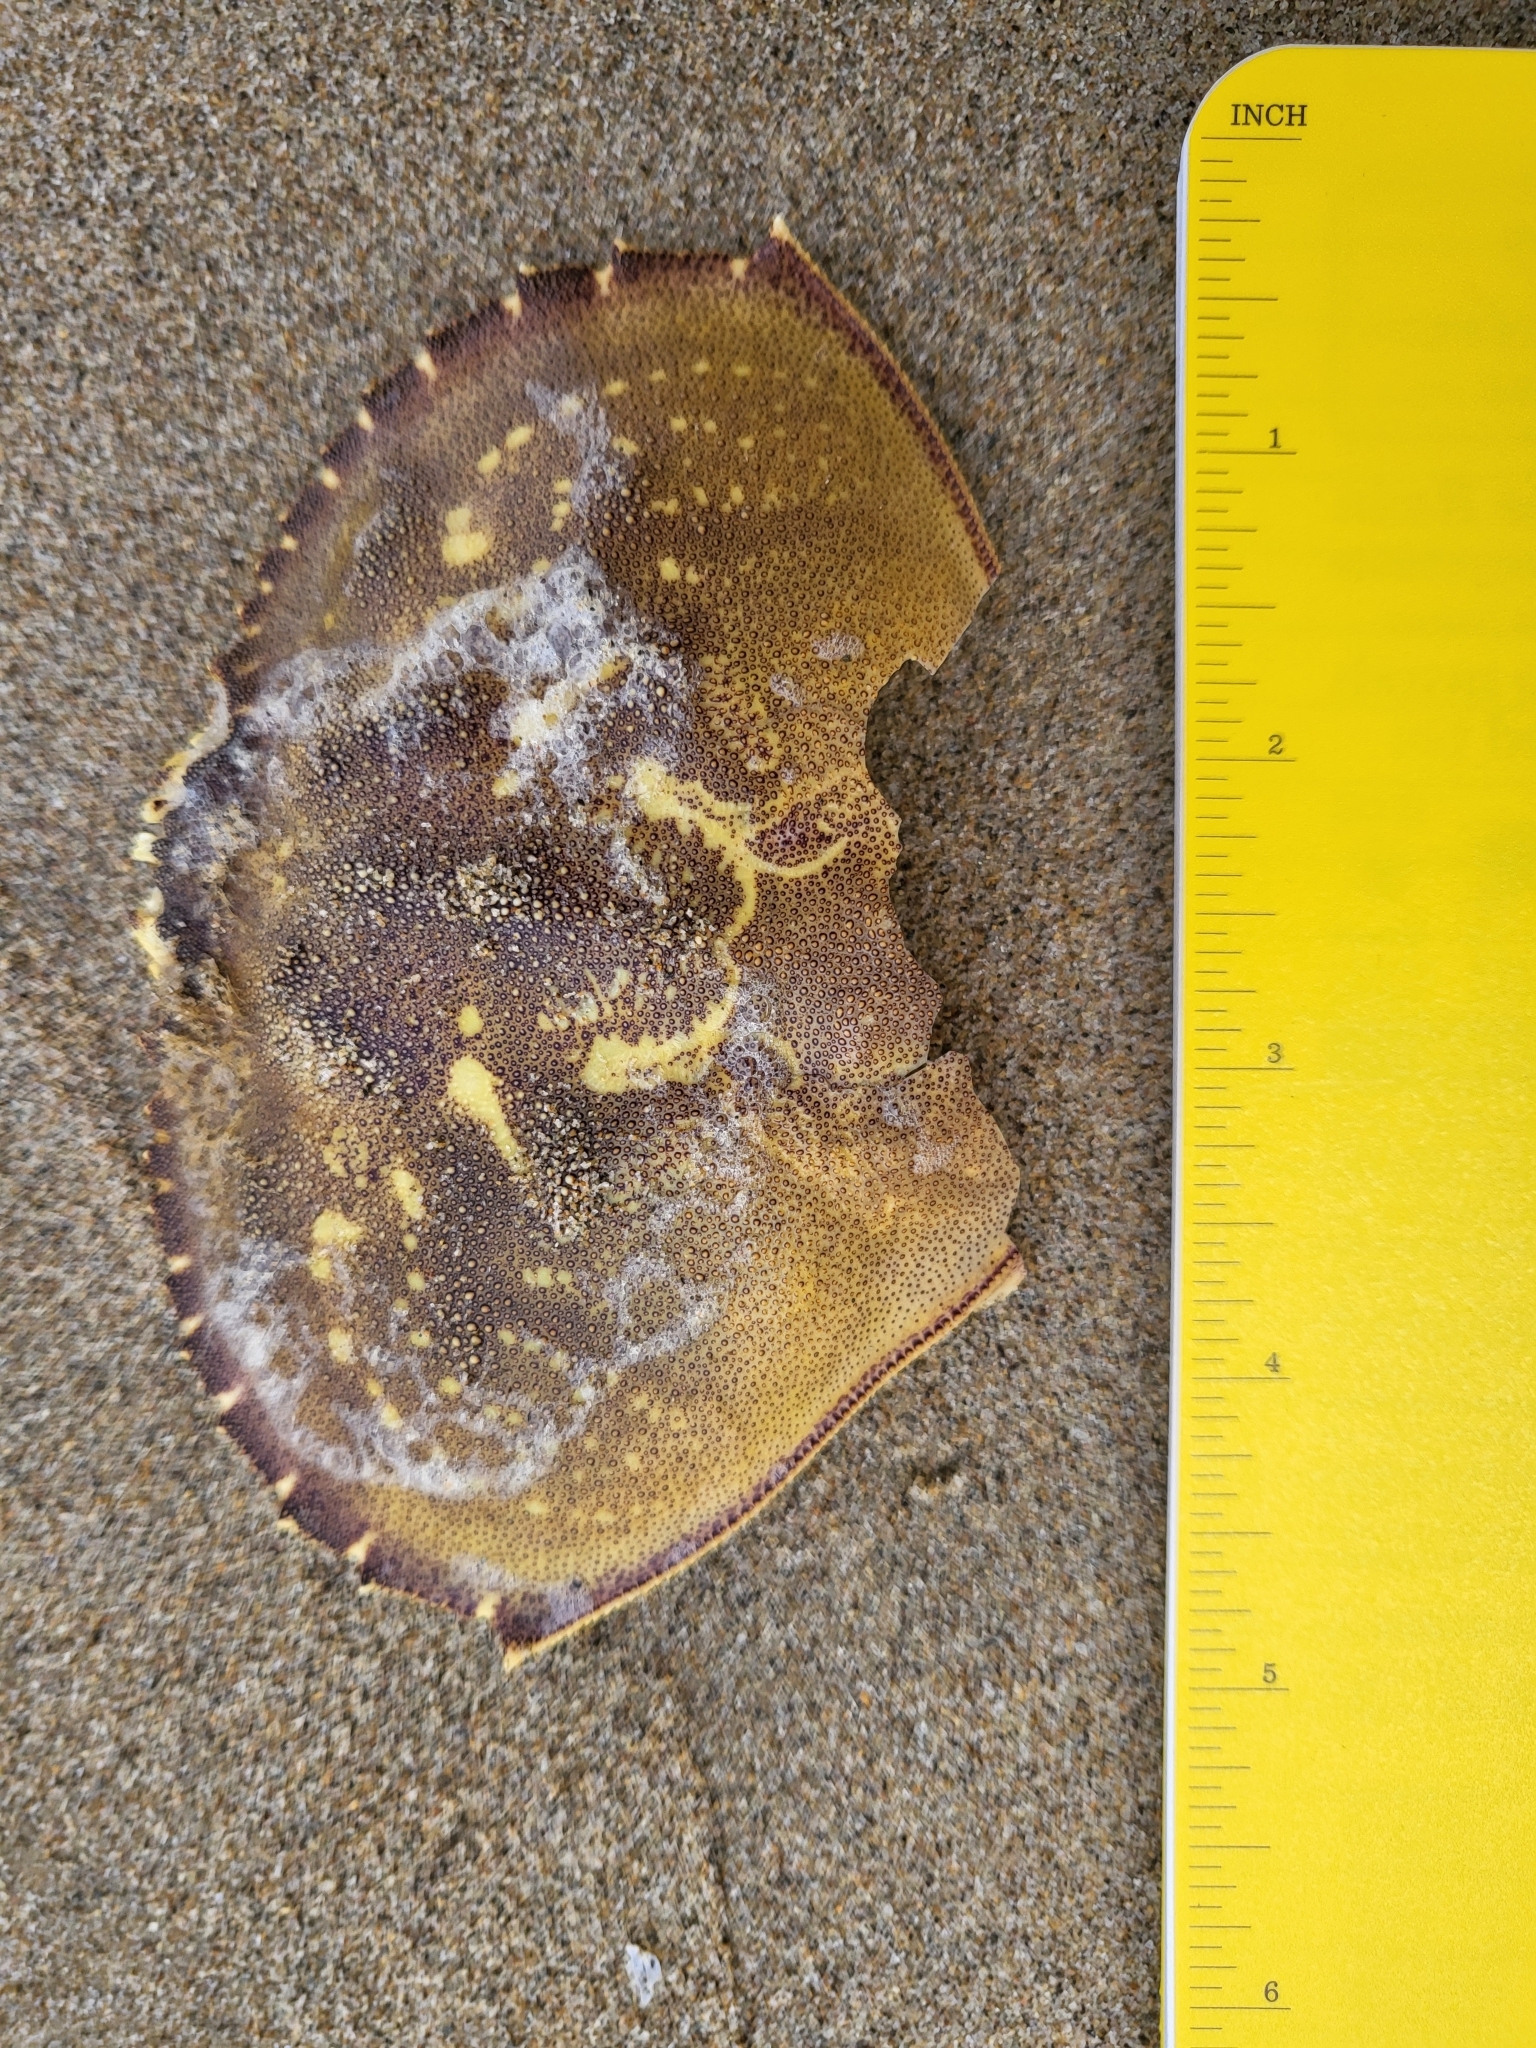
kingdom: Animalia
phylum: Arthropoda
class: Malacostraca
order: Decapoda
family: Cancridae
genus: Metacarcinus
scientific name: Metacarcinus magister
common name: Californian crab
